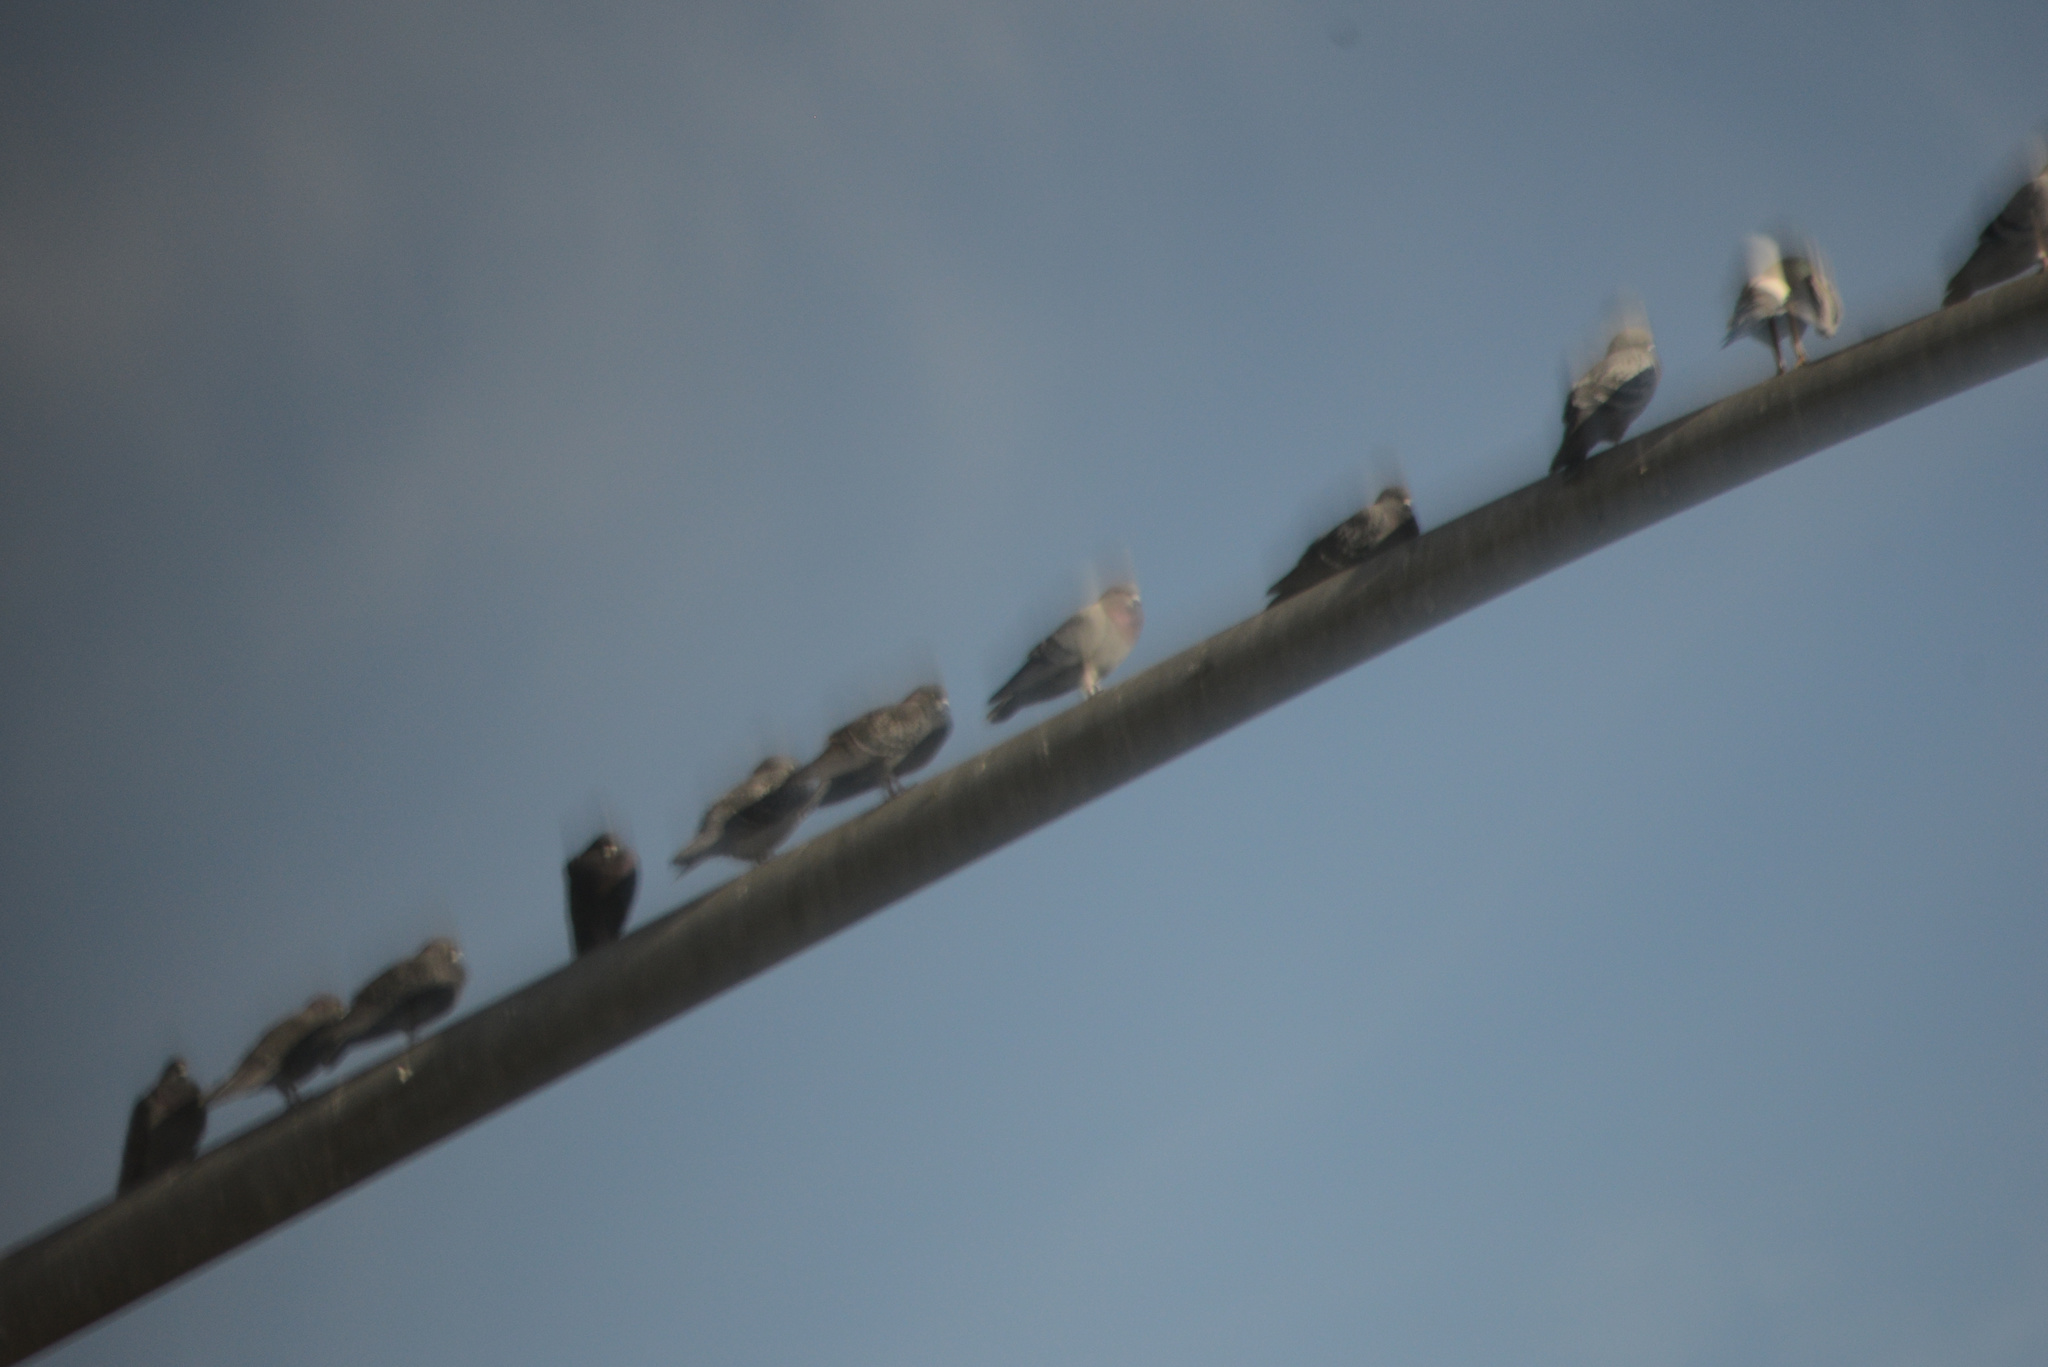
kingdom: Animalia
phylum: Chordata
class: Aves
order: Columbiformes
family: Columbidae
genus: Columba
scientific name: Columba livia
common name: Rock pigeon
